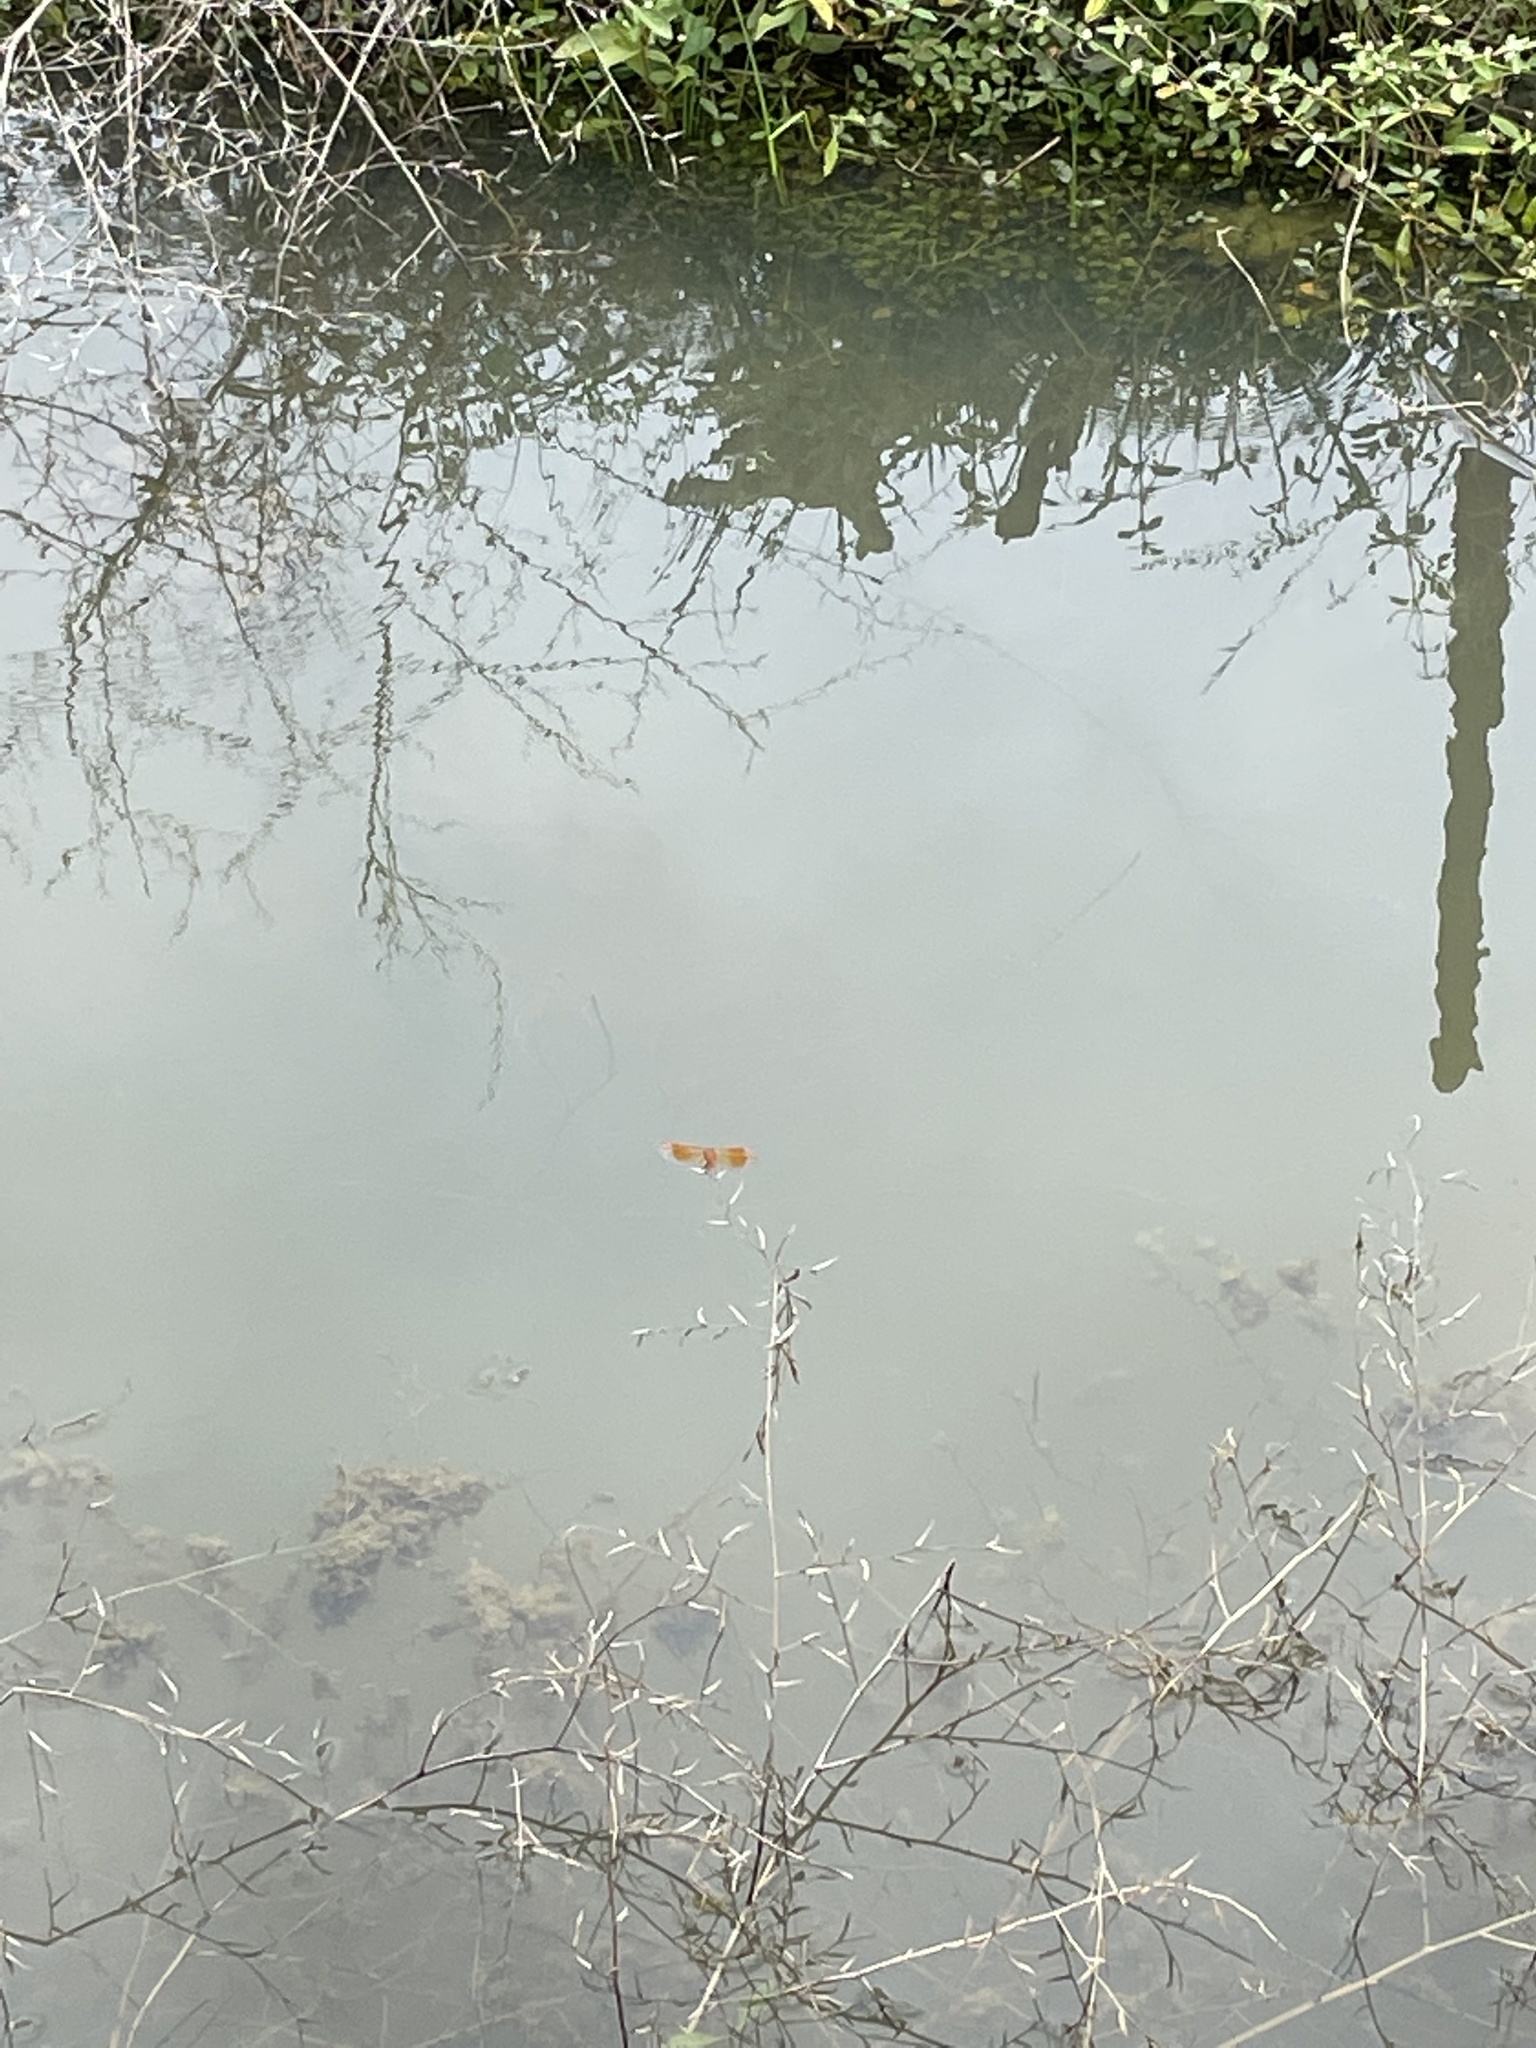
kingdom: Animalia
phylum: Arthropoda
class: Insecta
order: Odonata
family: Libellulidae
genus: Brachythemis
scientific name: Brachythemis contaminata
